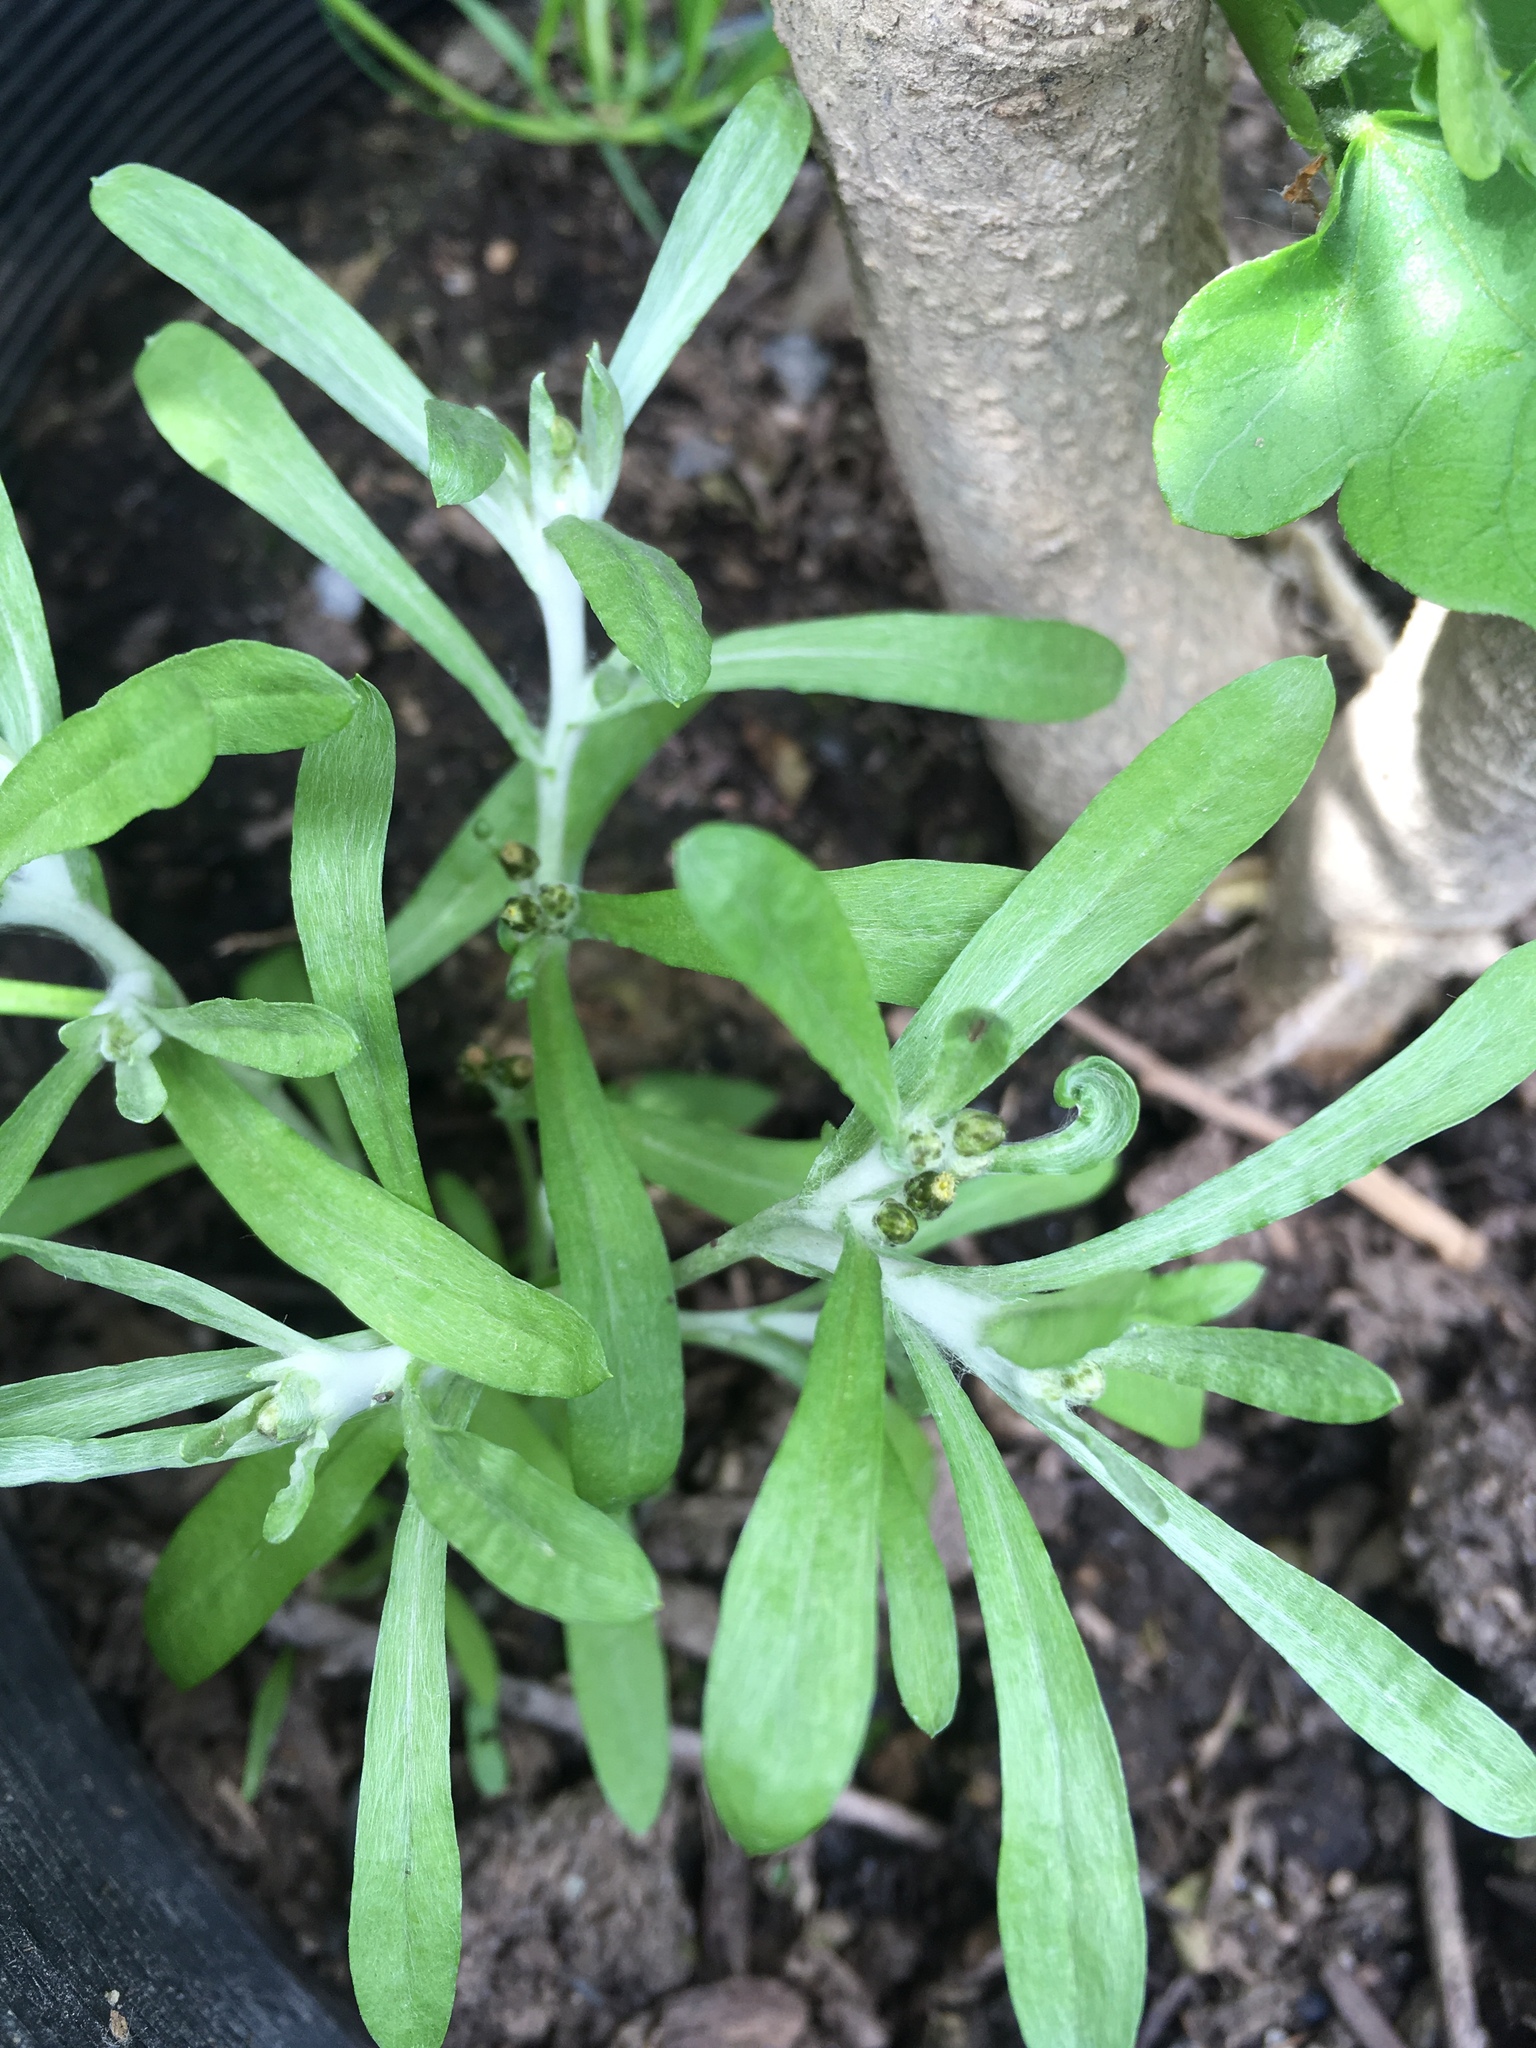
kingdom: Plantae
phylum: Tracheophyta
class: Magnoliopsida
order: Asterales
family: Asteraceae
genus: Gnaphalium
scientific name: Gnaphalium uliginosum
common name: Marsh cudweed
